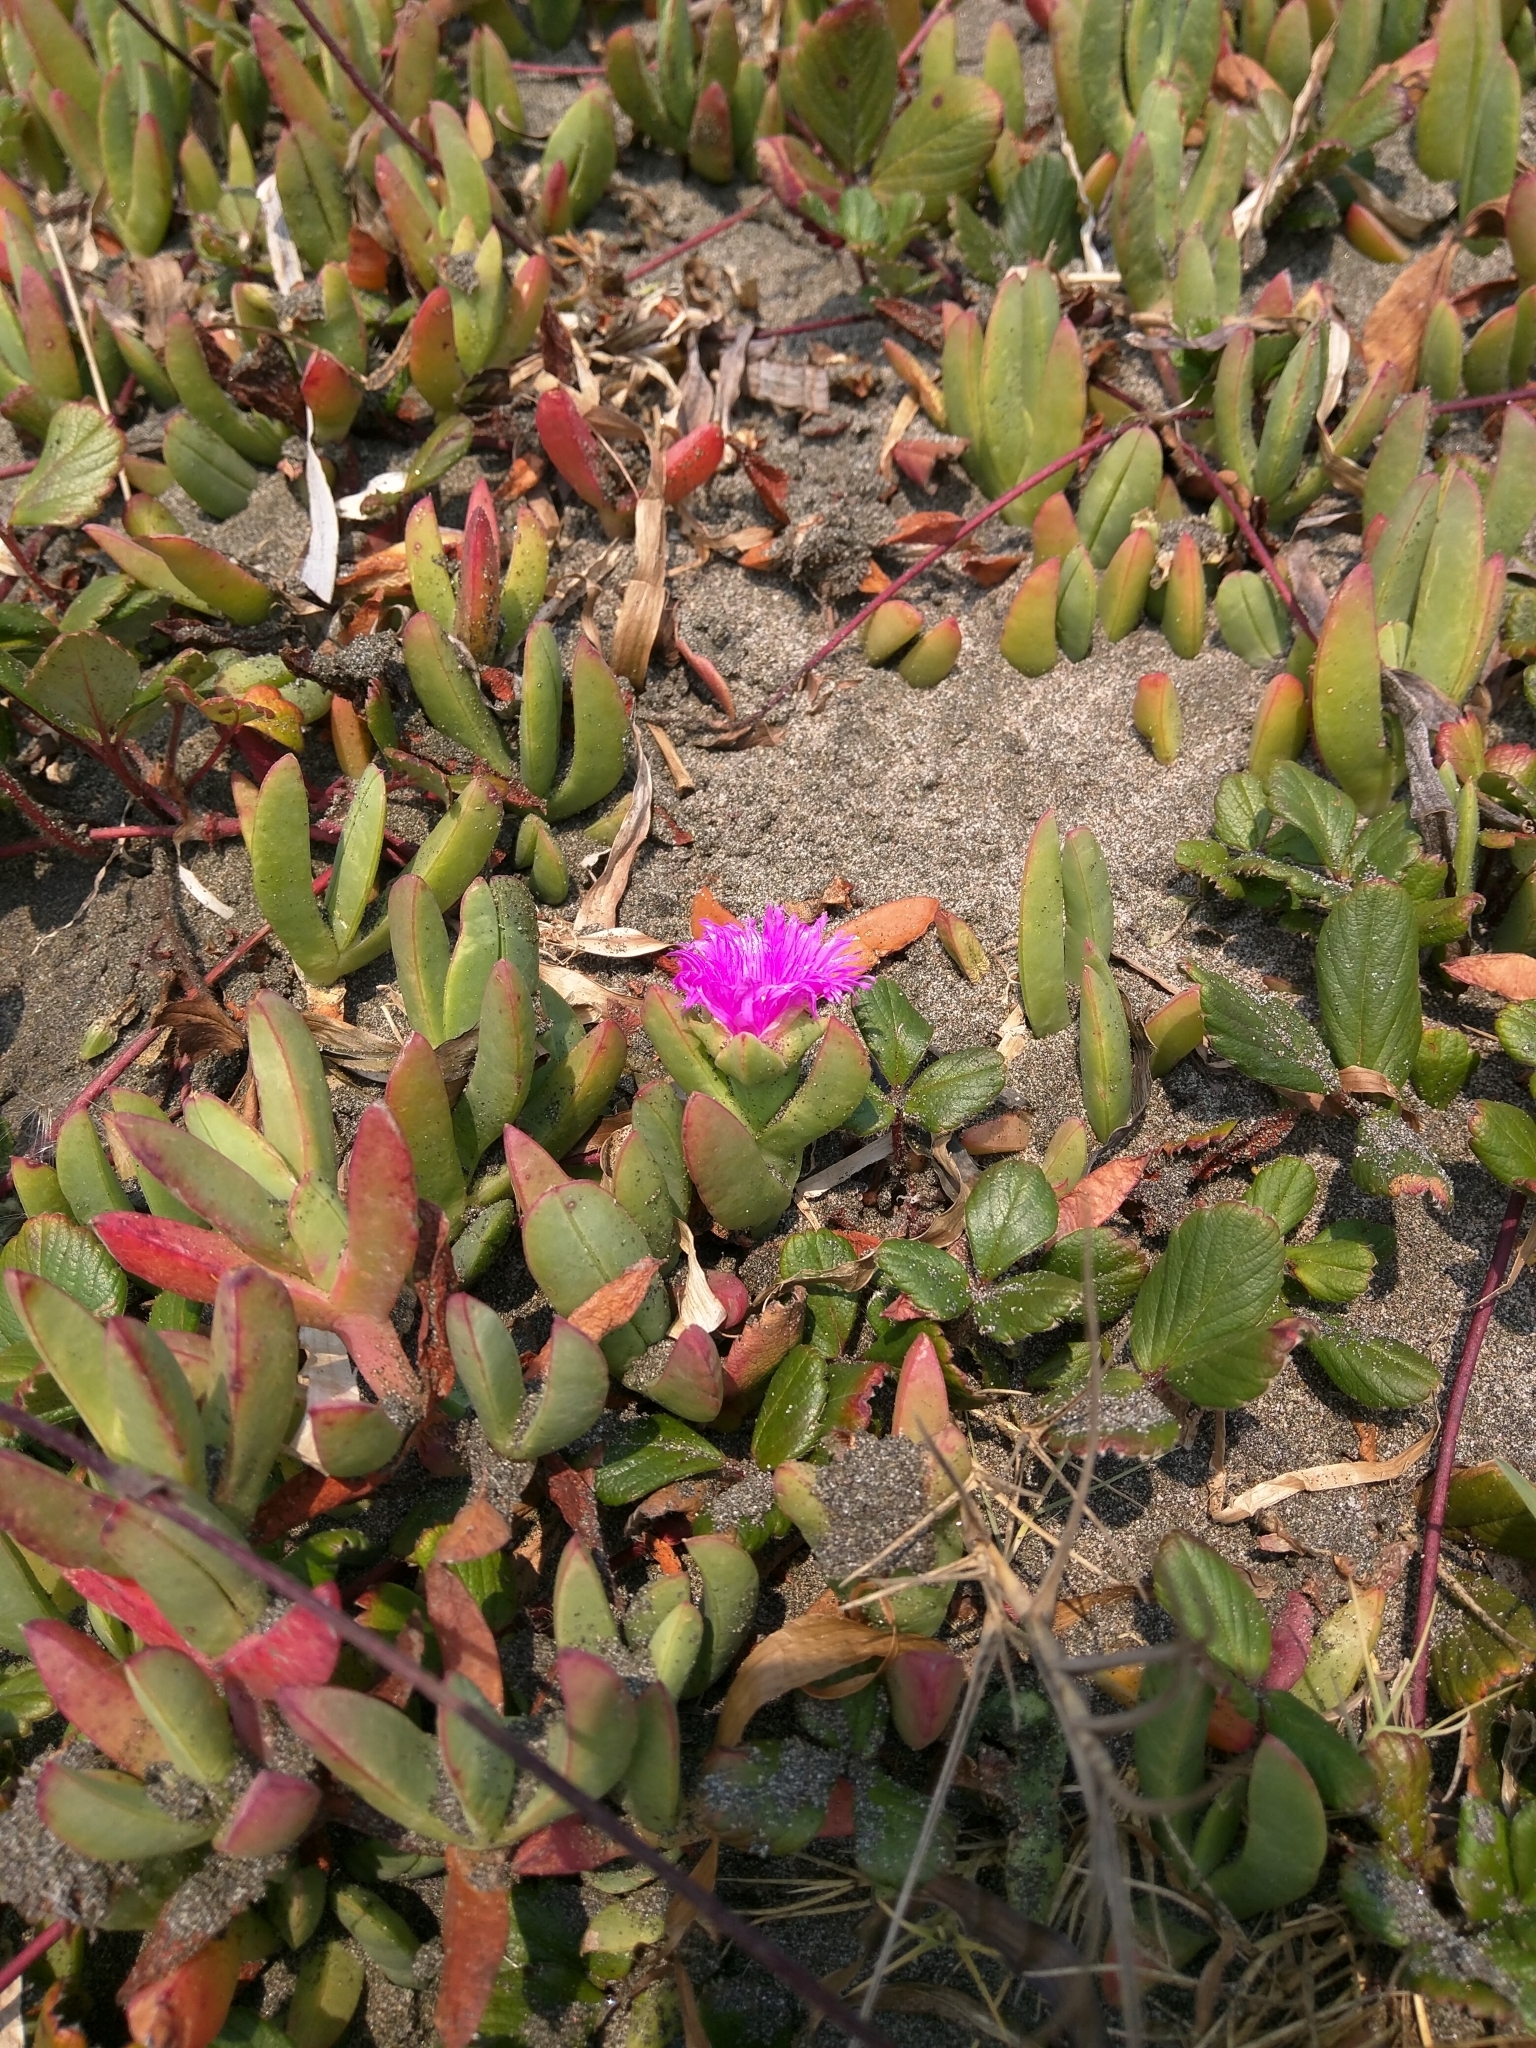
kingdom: Plantae
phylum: Tracheophyta
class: Magnoliopsida
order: Caryophyllales
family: Aizoaceae
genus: Carpobrotus
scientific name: Carpobrotus chilensis
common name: Sea fig
